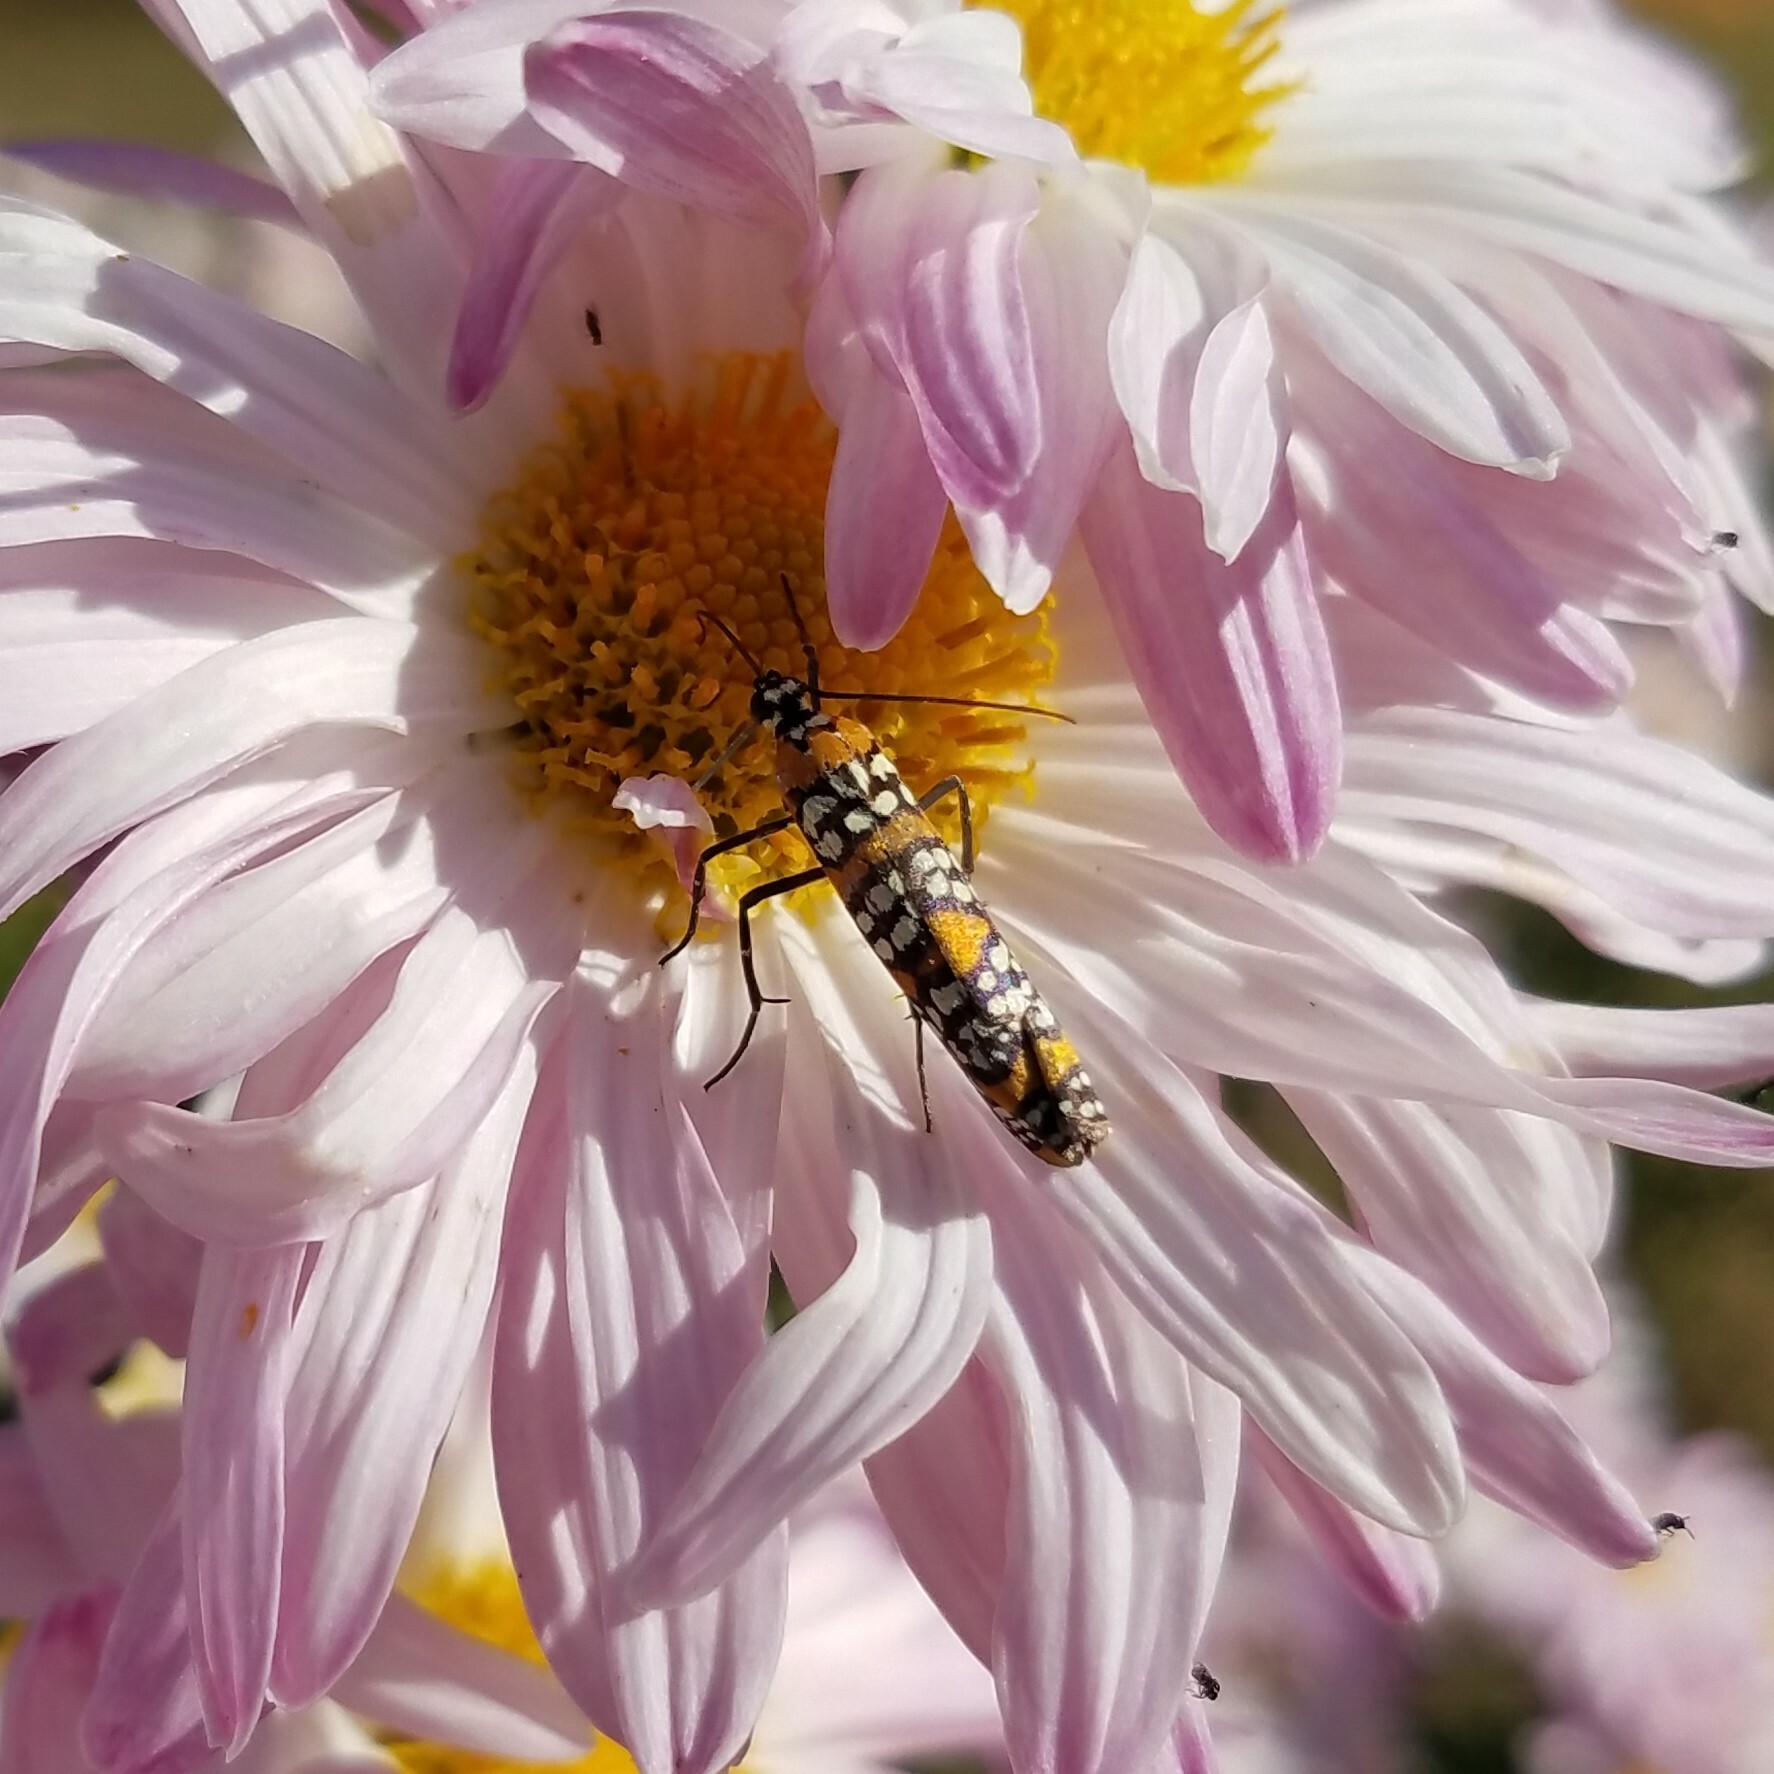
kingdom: Animalia
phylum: Arthropoda
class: Insecta
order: Lepidoptera
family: Attevidae
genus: Atteva
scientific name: Atteva punctella
